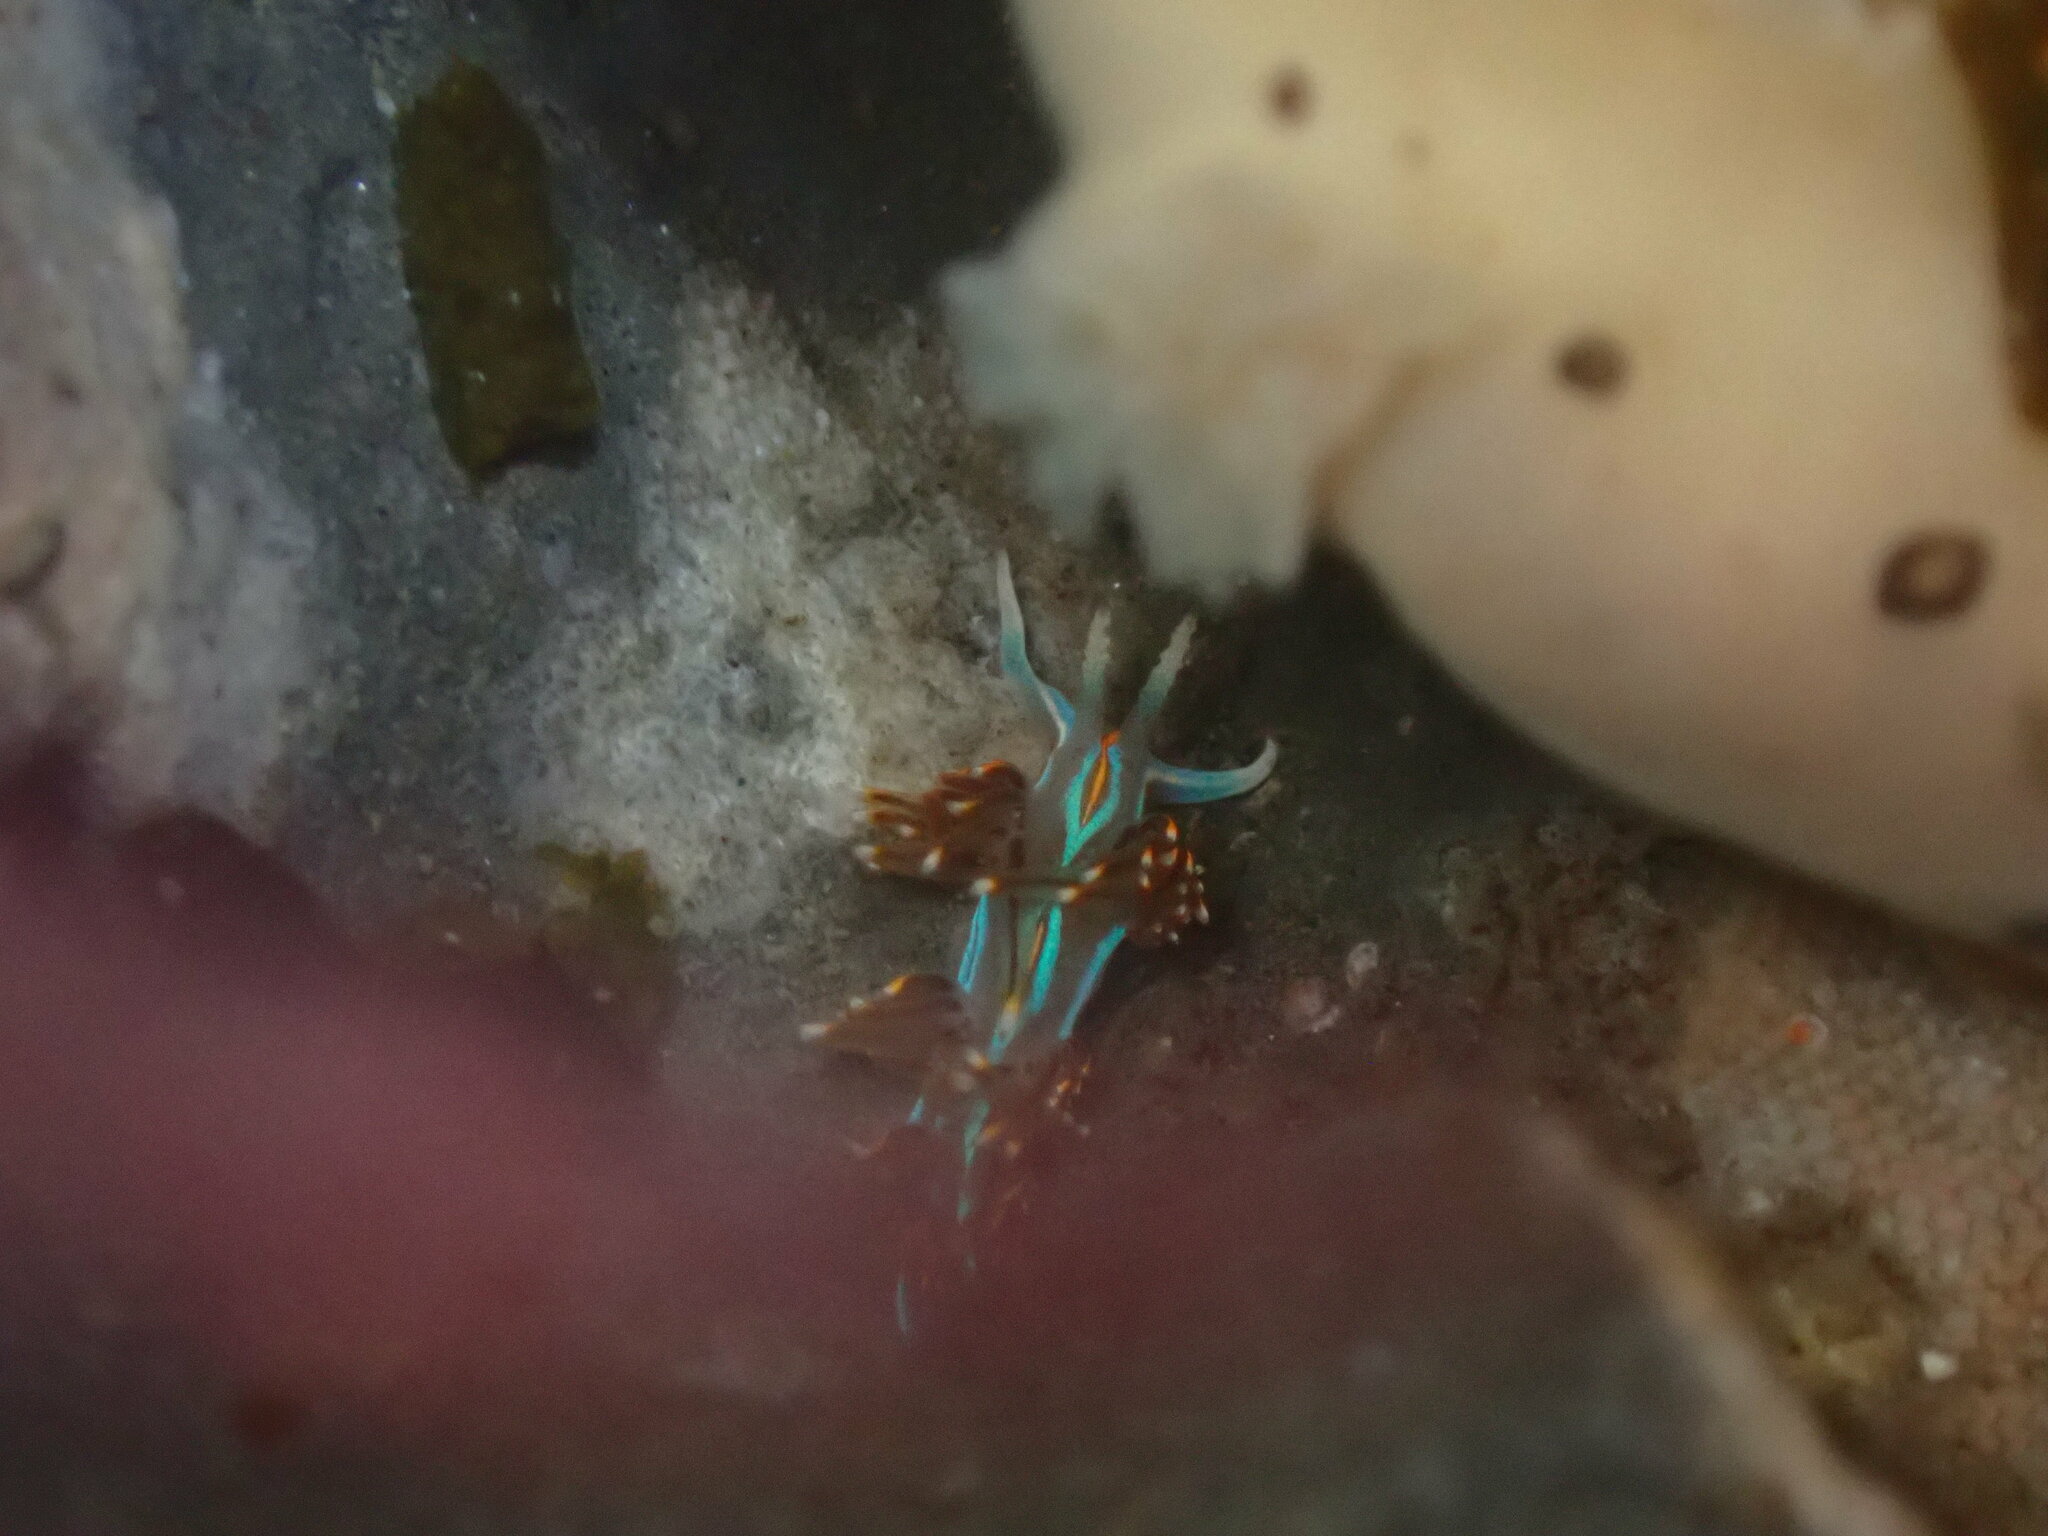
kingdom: Animalia
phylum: Mollusca
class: Gastropoda
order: Nudibranchia
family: Myrrhinidae
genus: Hermissenda
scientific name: Hermissenda opalescens
